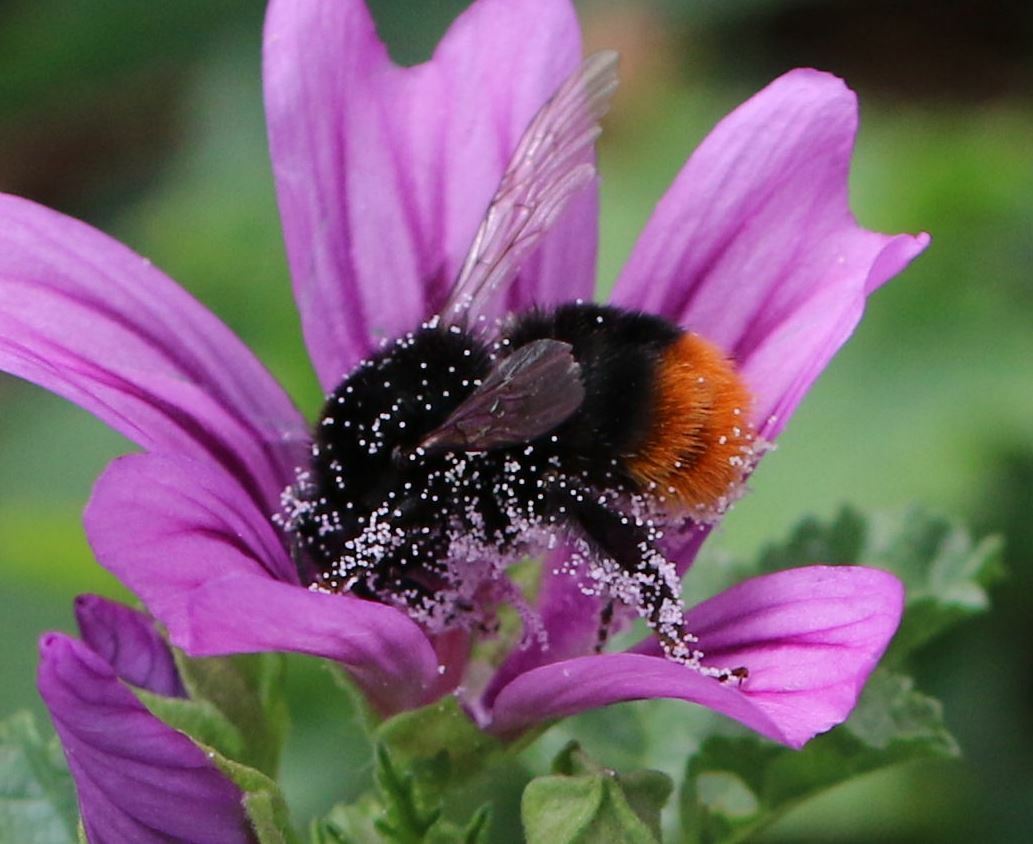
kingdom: Animalia
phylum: Arthropoda
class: Insecta
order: Hymenoptera
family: Apidae
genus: Bombus
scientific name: Bombus lapidarius
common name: Large red-tailed humble-bee
